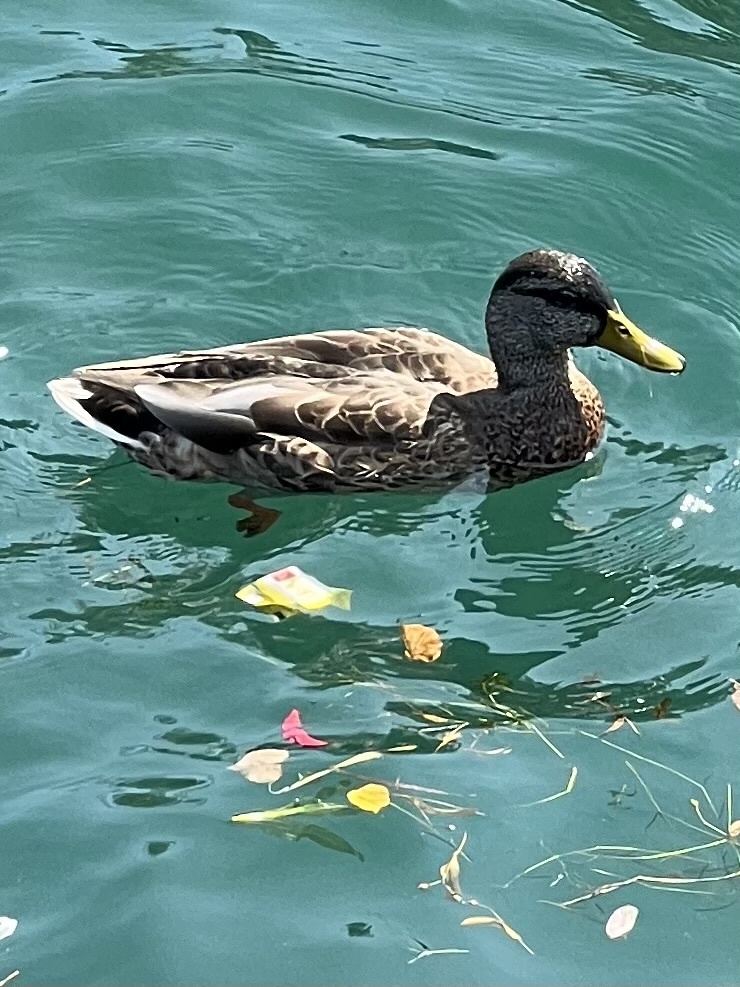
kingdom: Animalia
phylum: Chordata
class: Aves
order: Anseriformes
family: Anatidae
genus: Anas
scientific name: Anas platyrhynchos
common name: Mallard
